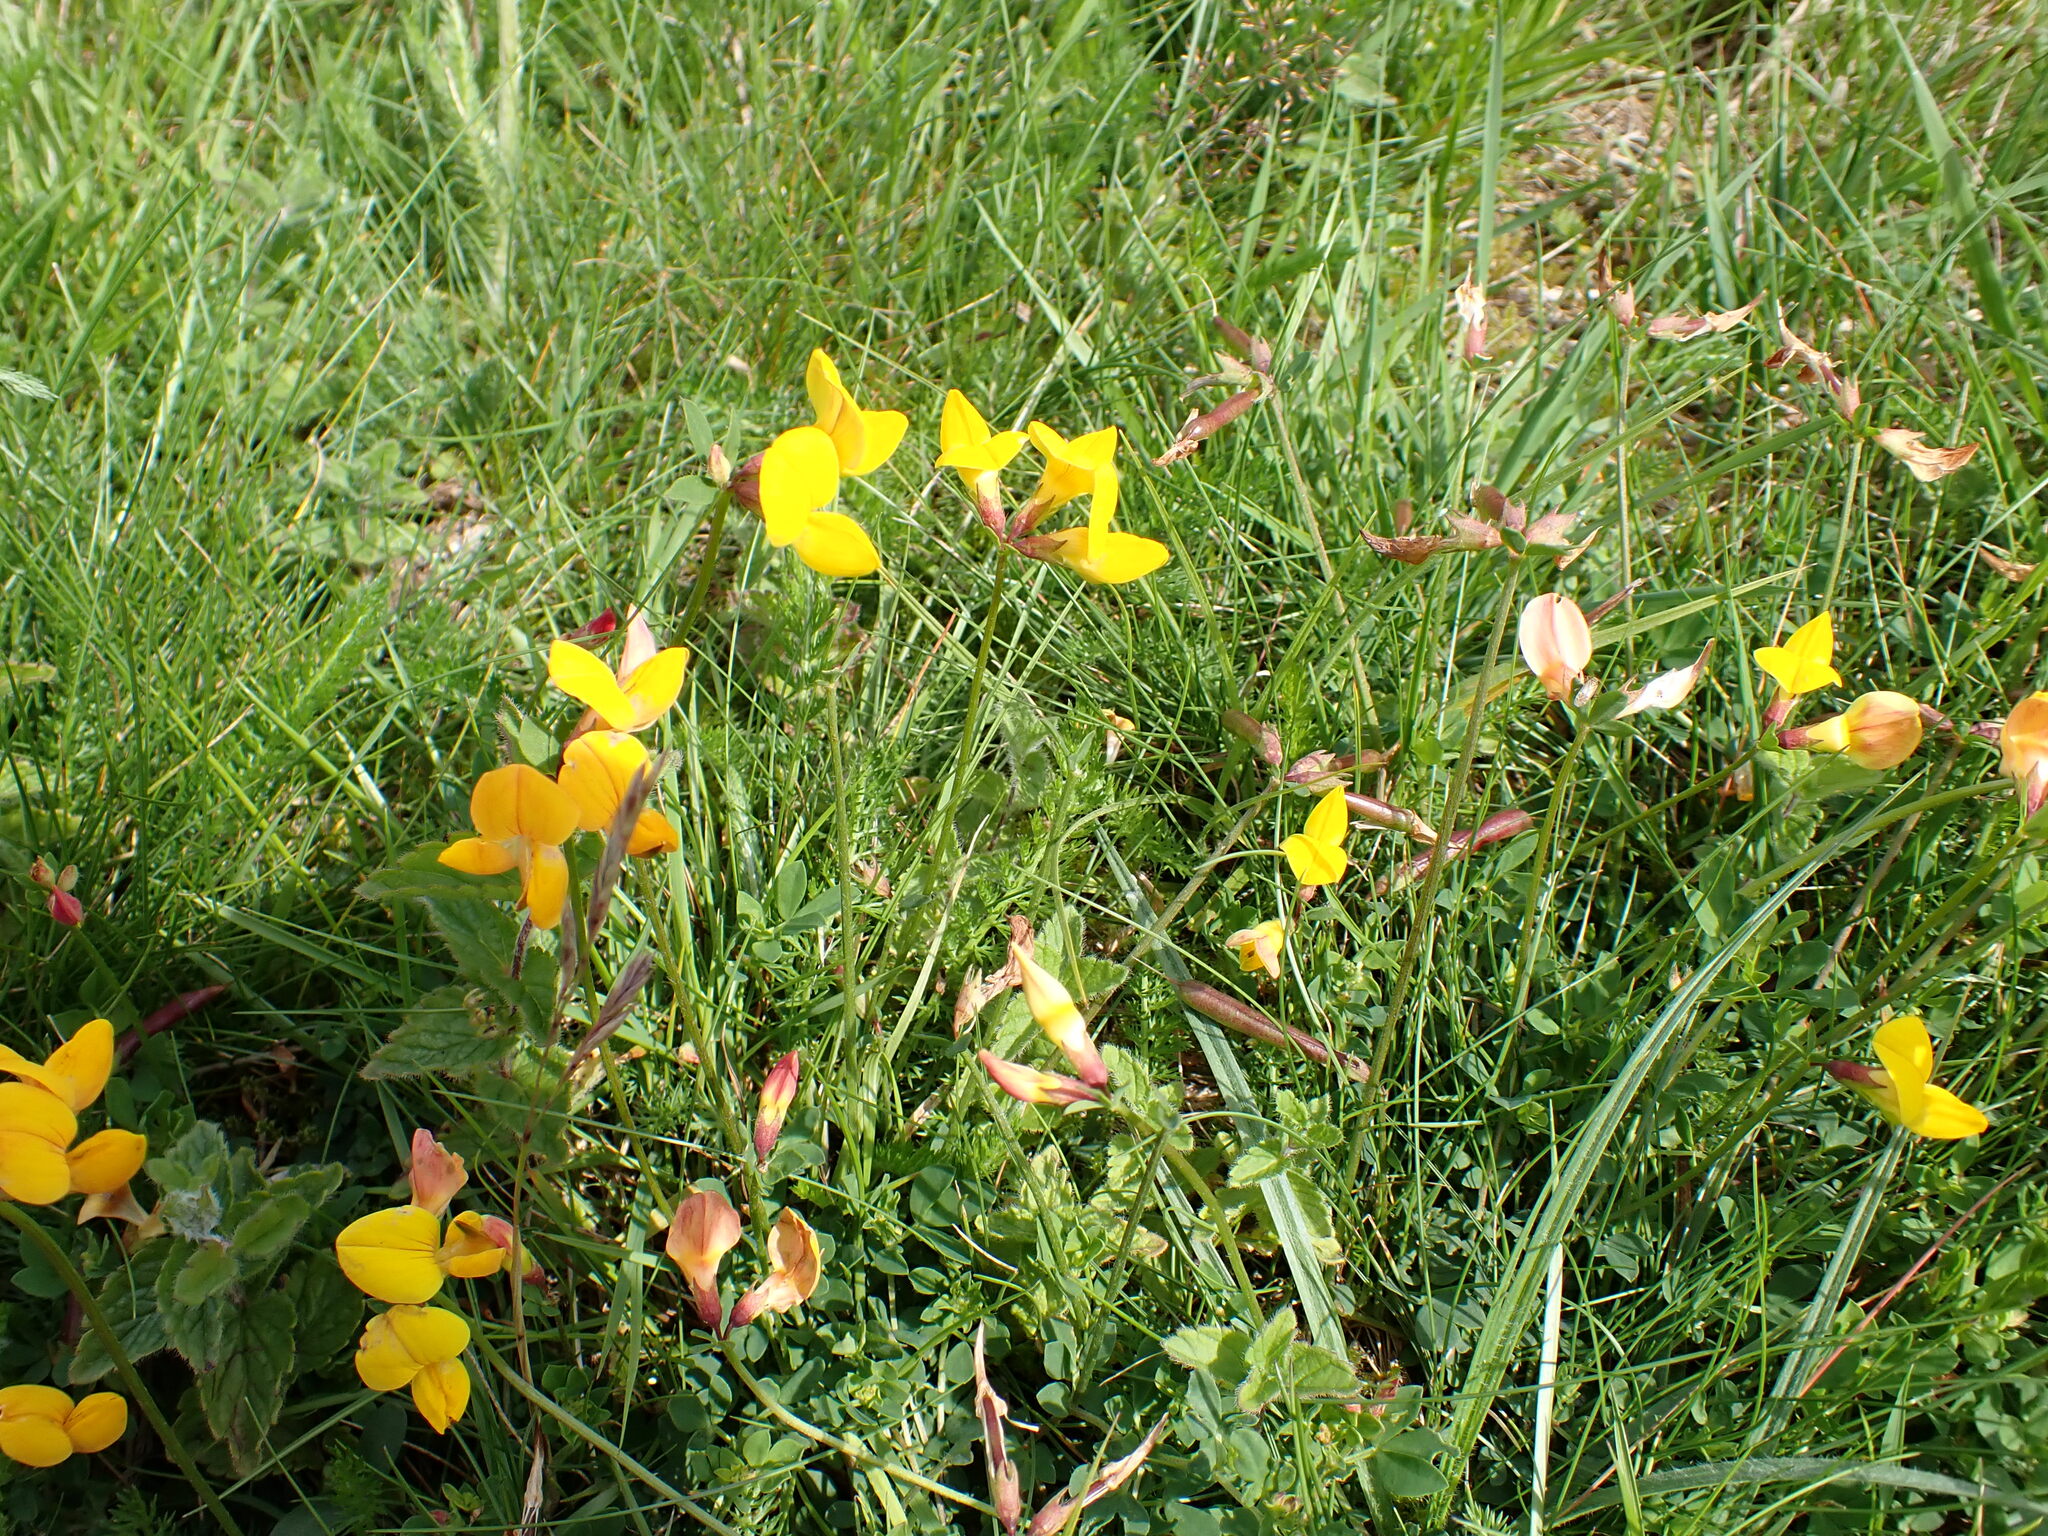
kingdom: Plantae
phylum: Tracheophyta
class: Magnoliopsida
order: Fabales
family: Fabaceae
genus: Lotus
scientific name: Lotus corniculatus
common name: Common bird's-foot-trefoil
